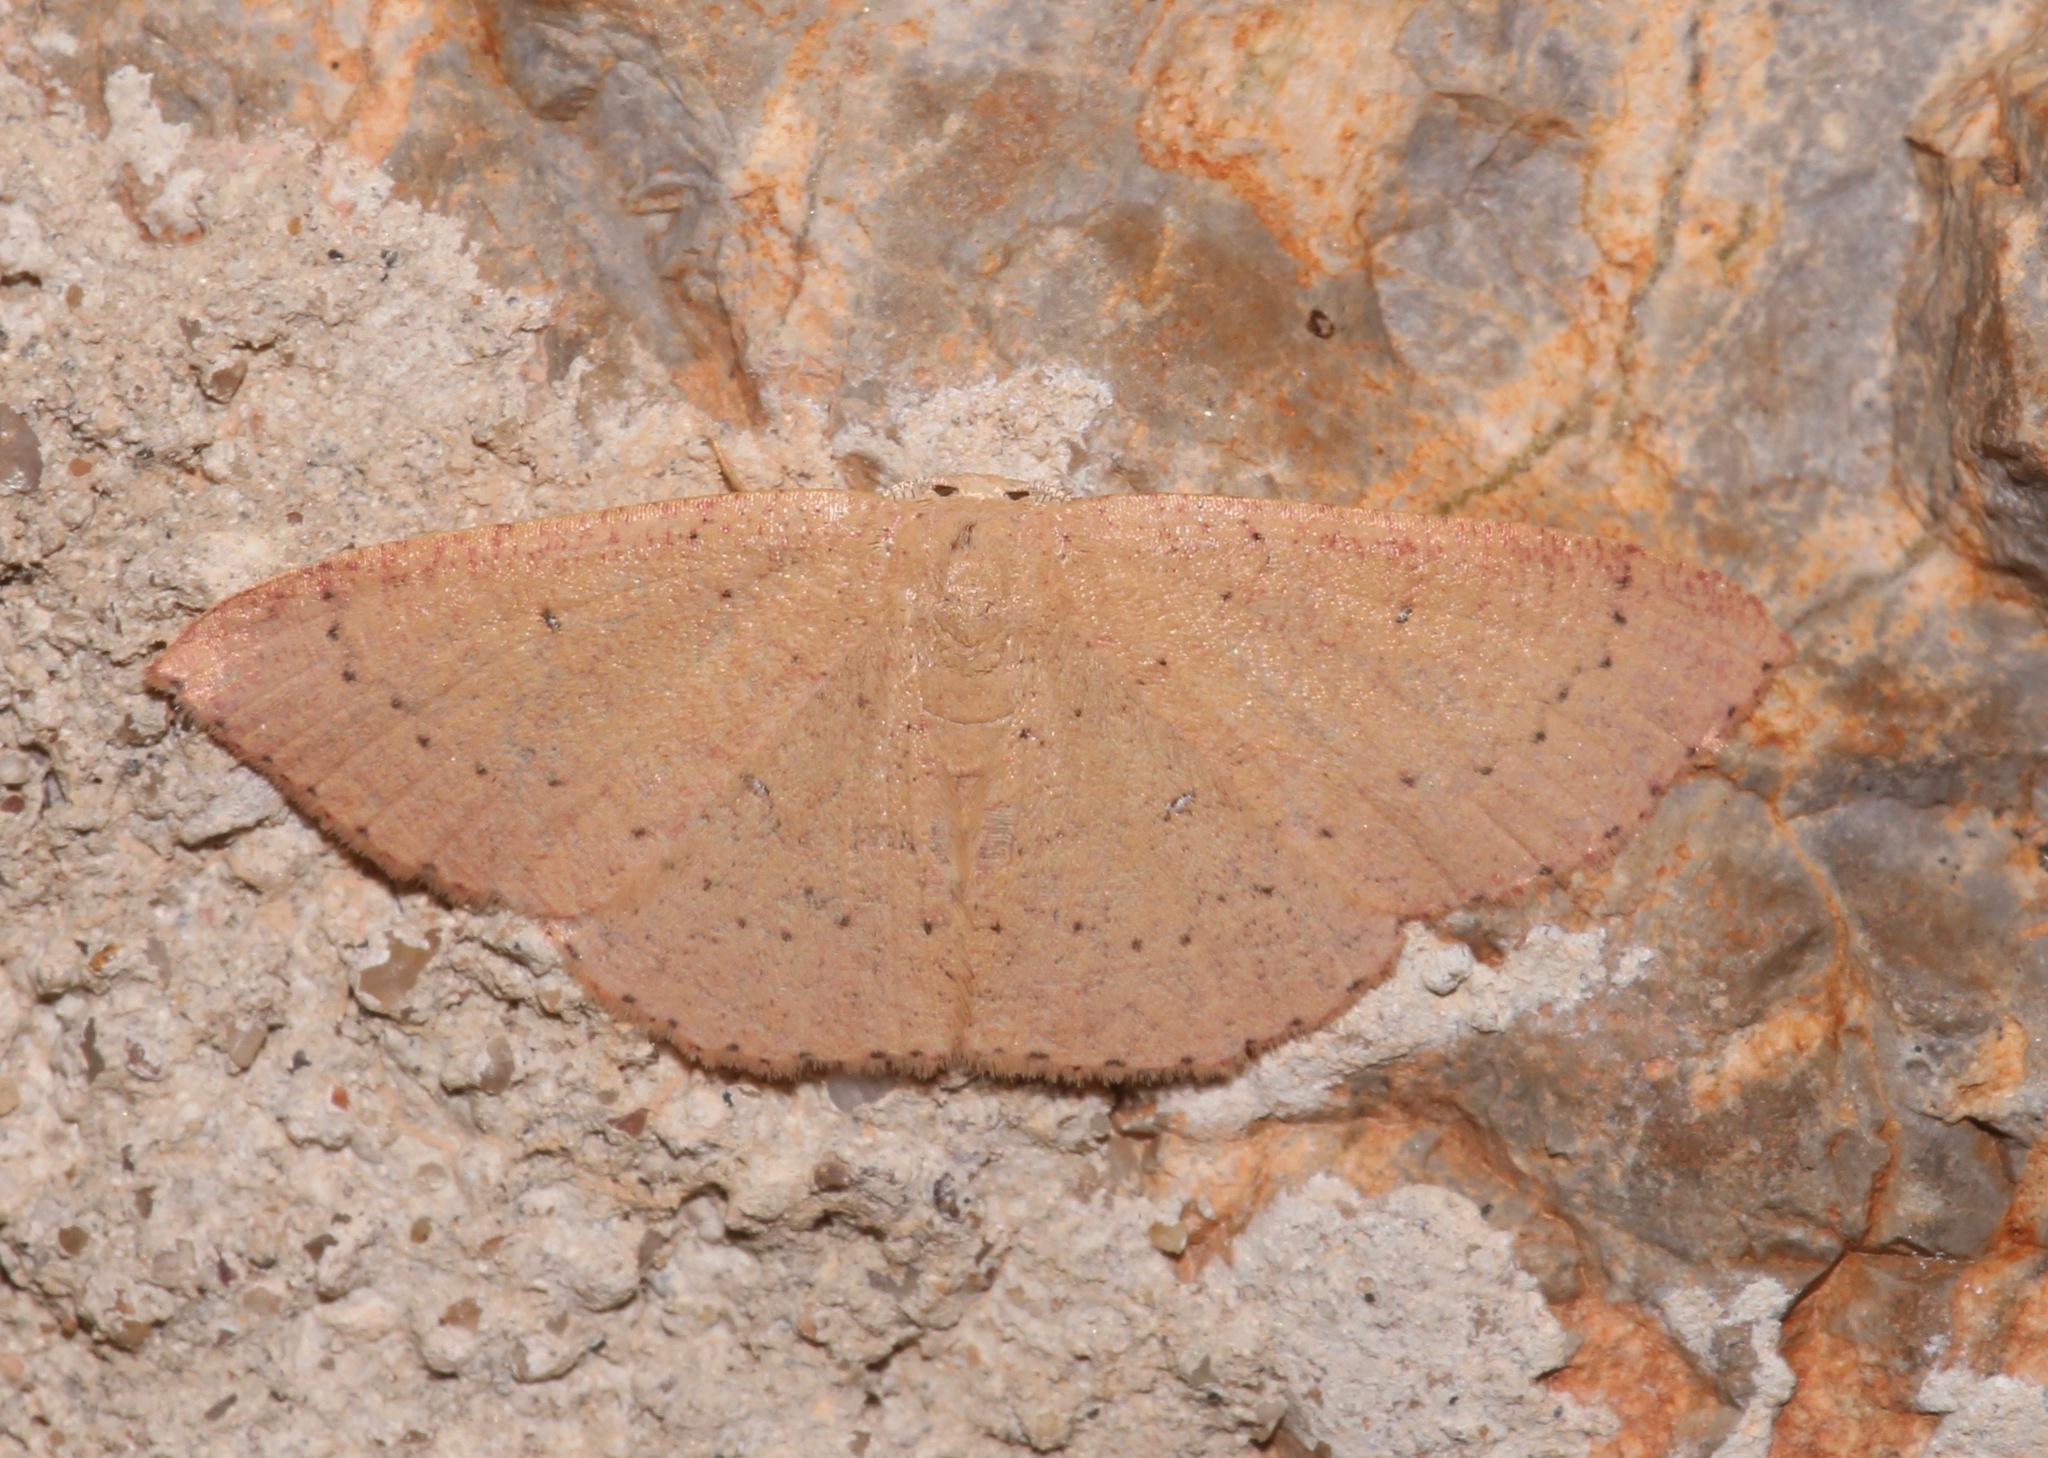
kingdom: Animalia
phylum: Arthropoda
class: Insecta
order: Lepidoptera
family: Geometridae
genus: Cyclophora
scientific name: Cyclophora dataria
